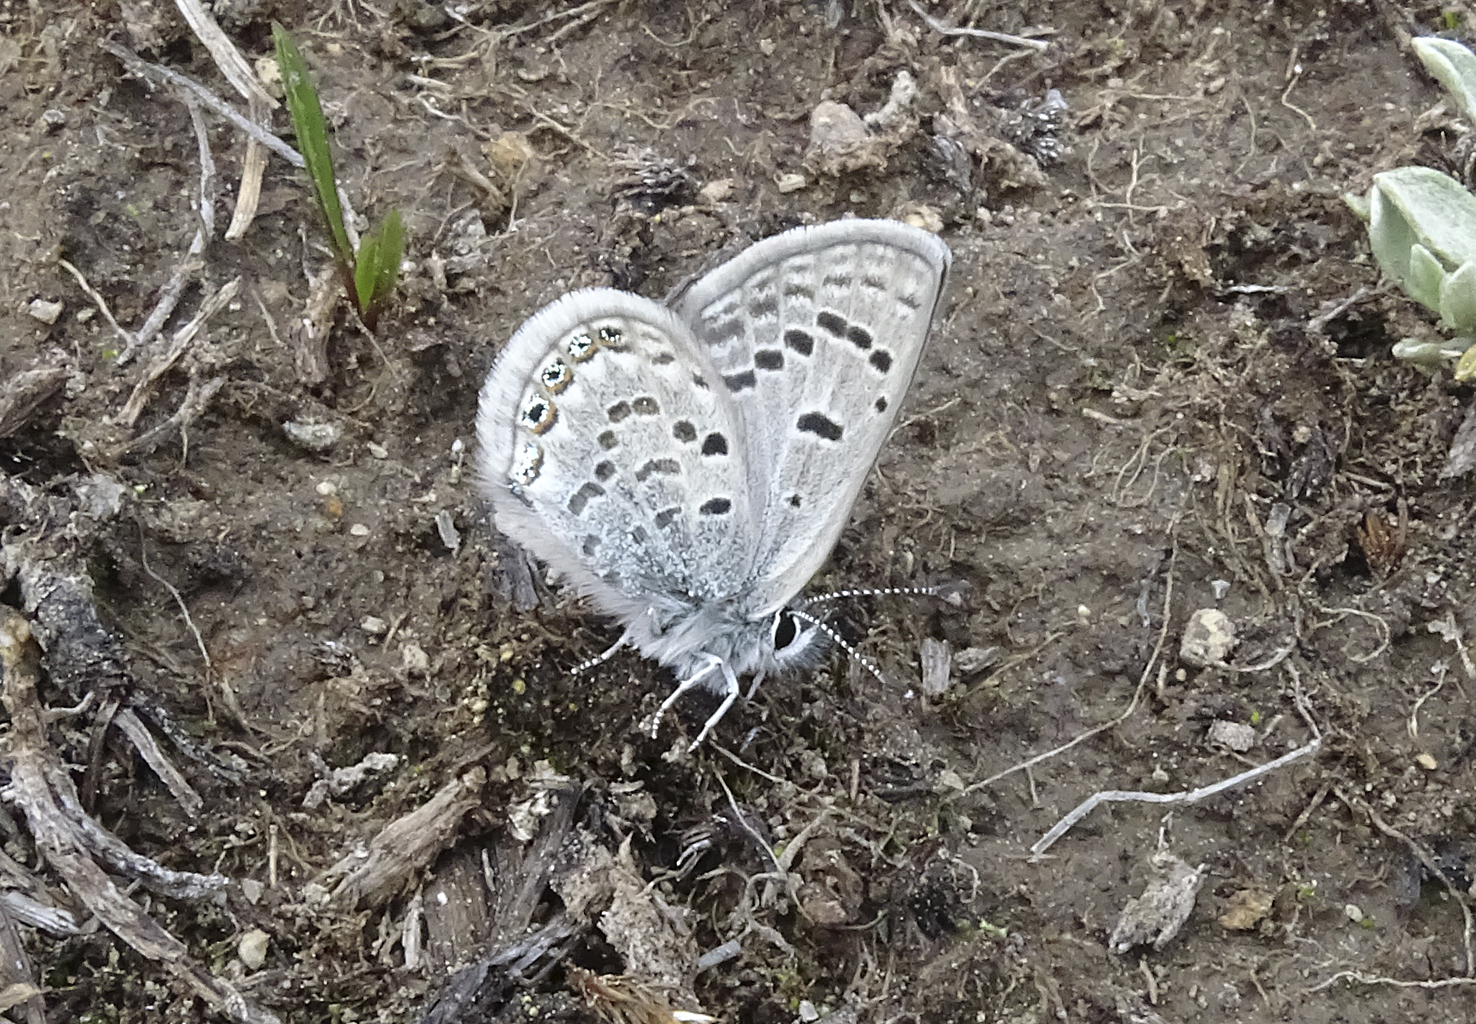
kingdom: Animalia
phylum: Arthropoda
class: Insecta
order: Lepidoptera
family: Lycaenidae
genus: Icaricia
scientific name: Icaricia shasta
